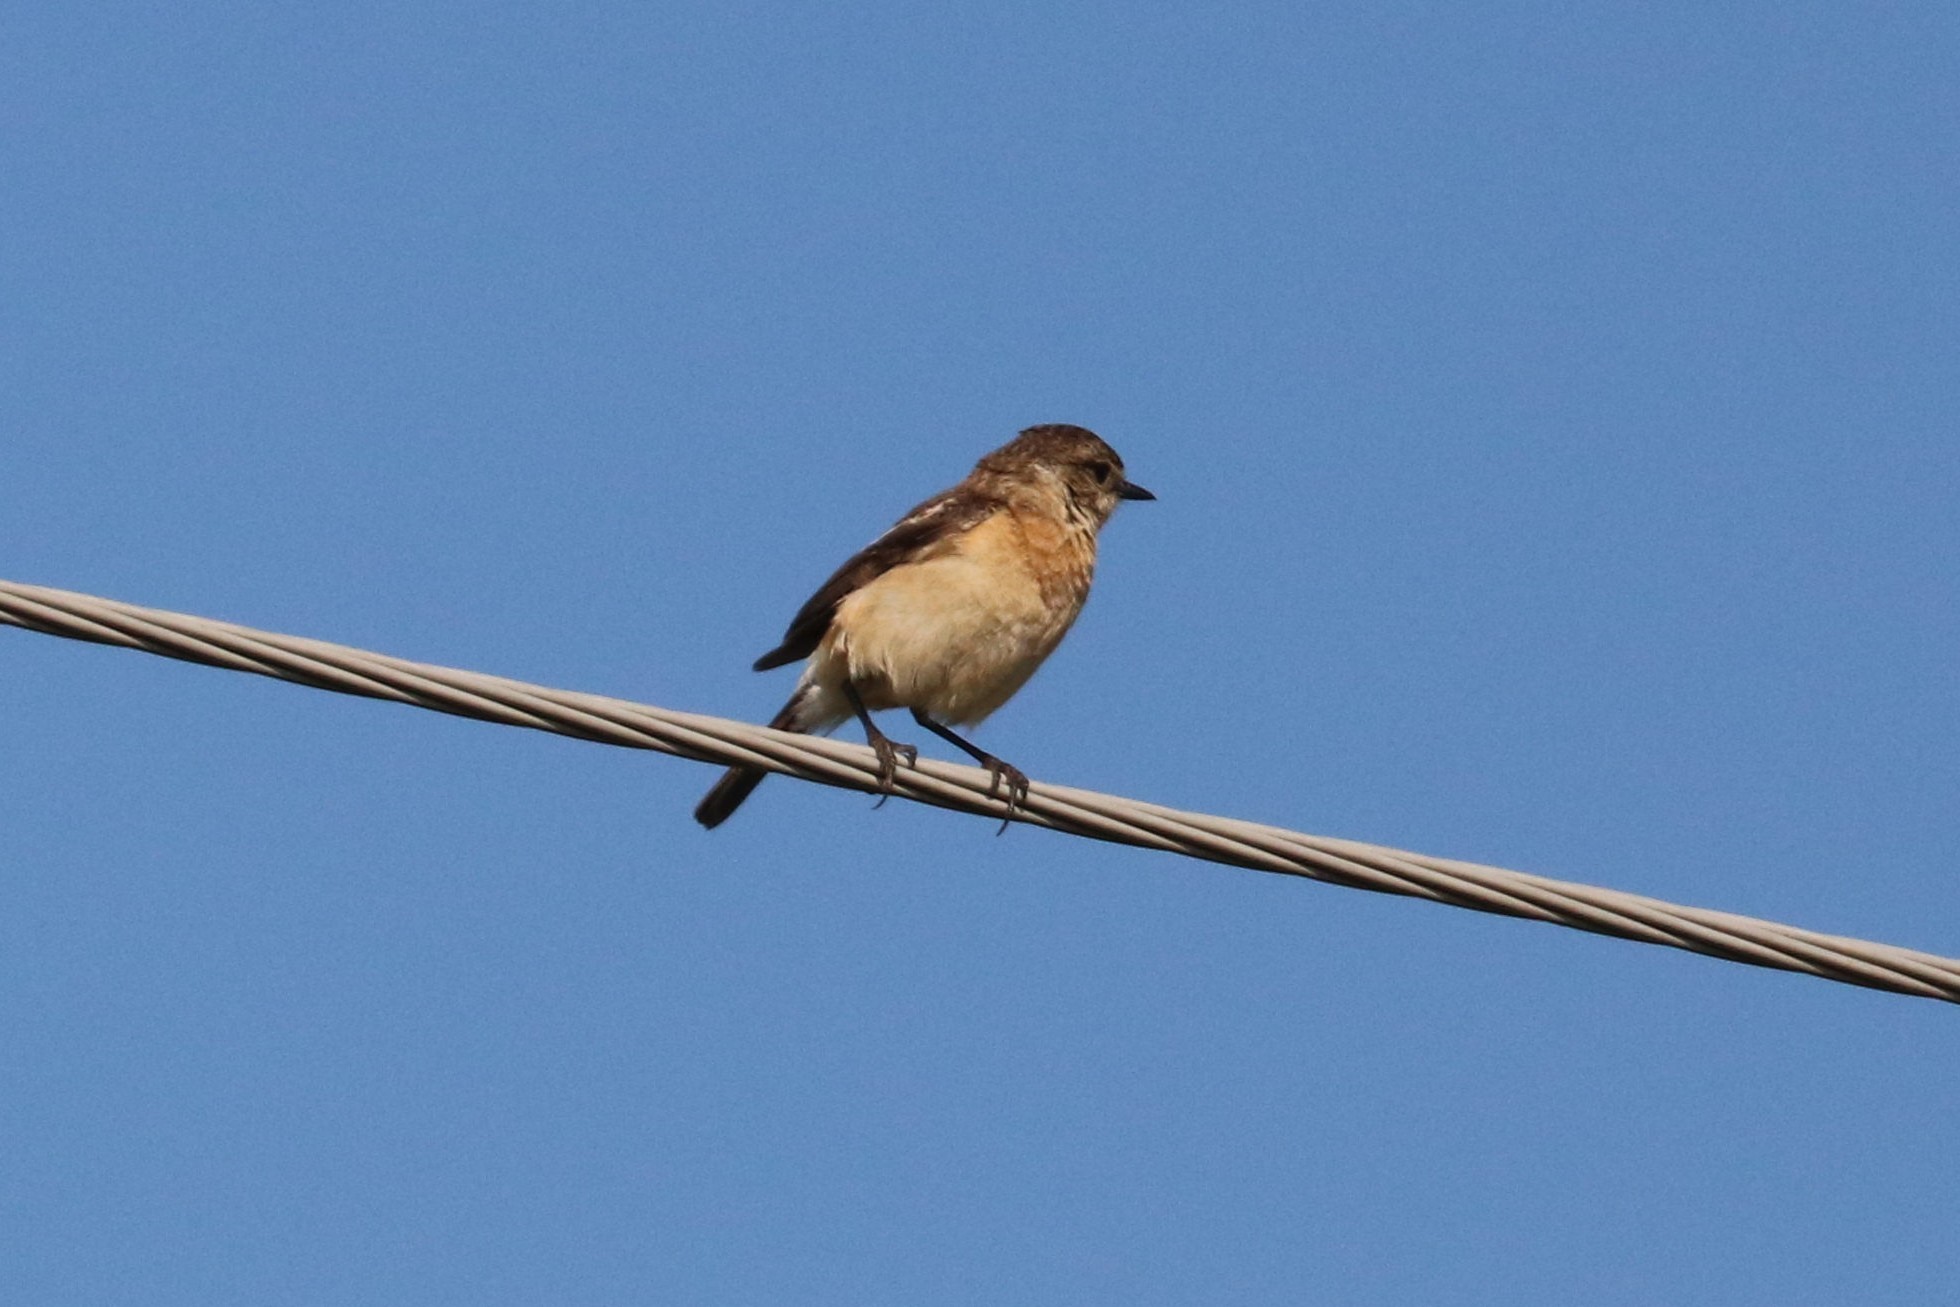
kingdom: Animalia
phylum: Chordata
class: Aves
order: Passeriformes
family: Muscicapidae
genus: Saxicola
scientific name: Saxicola maurus
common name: Siberian stonechat
